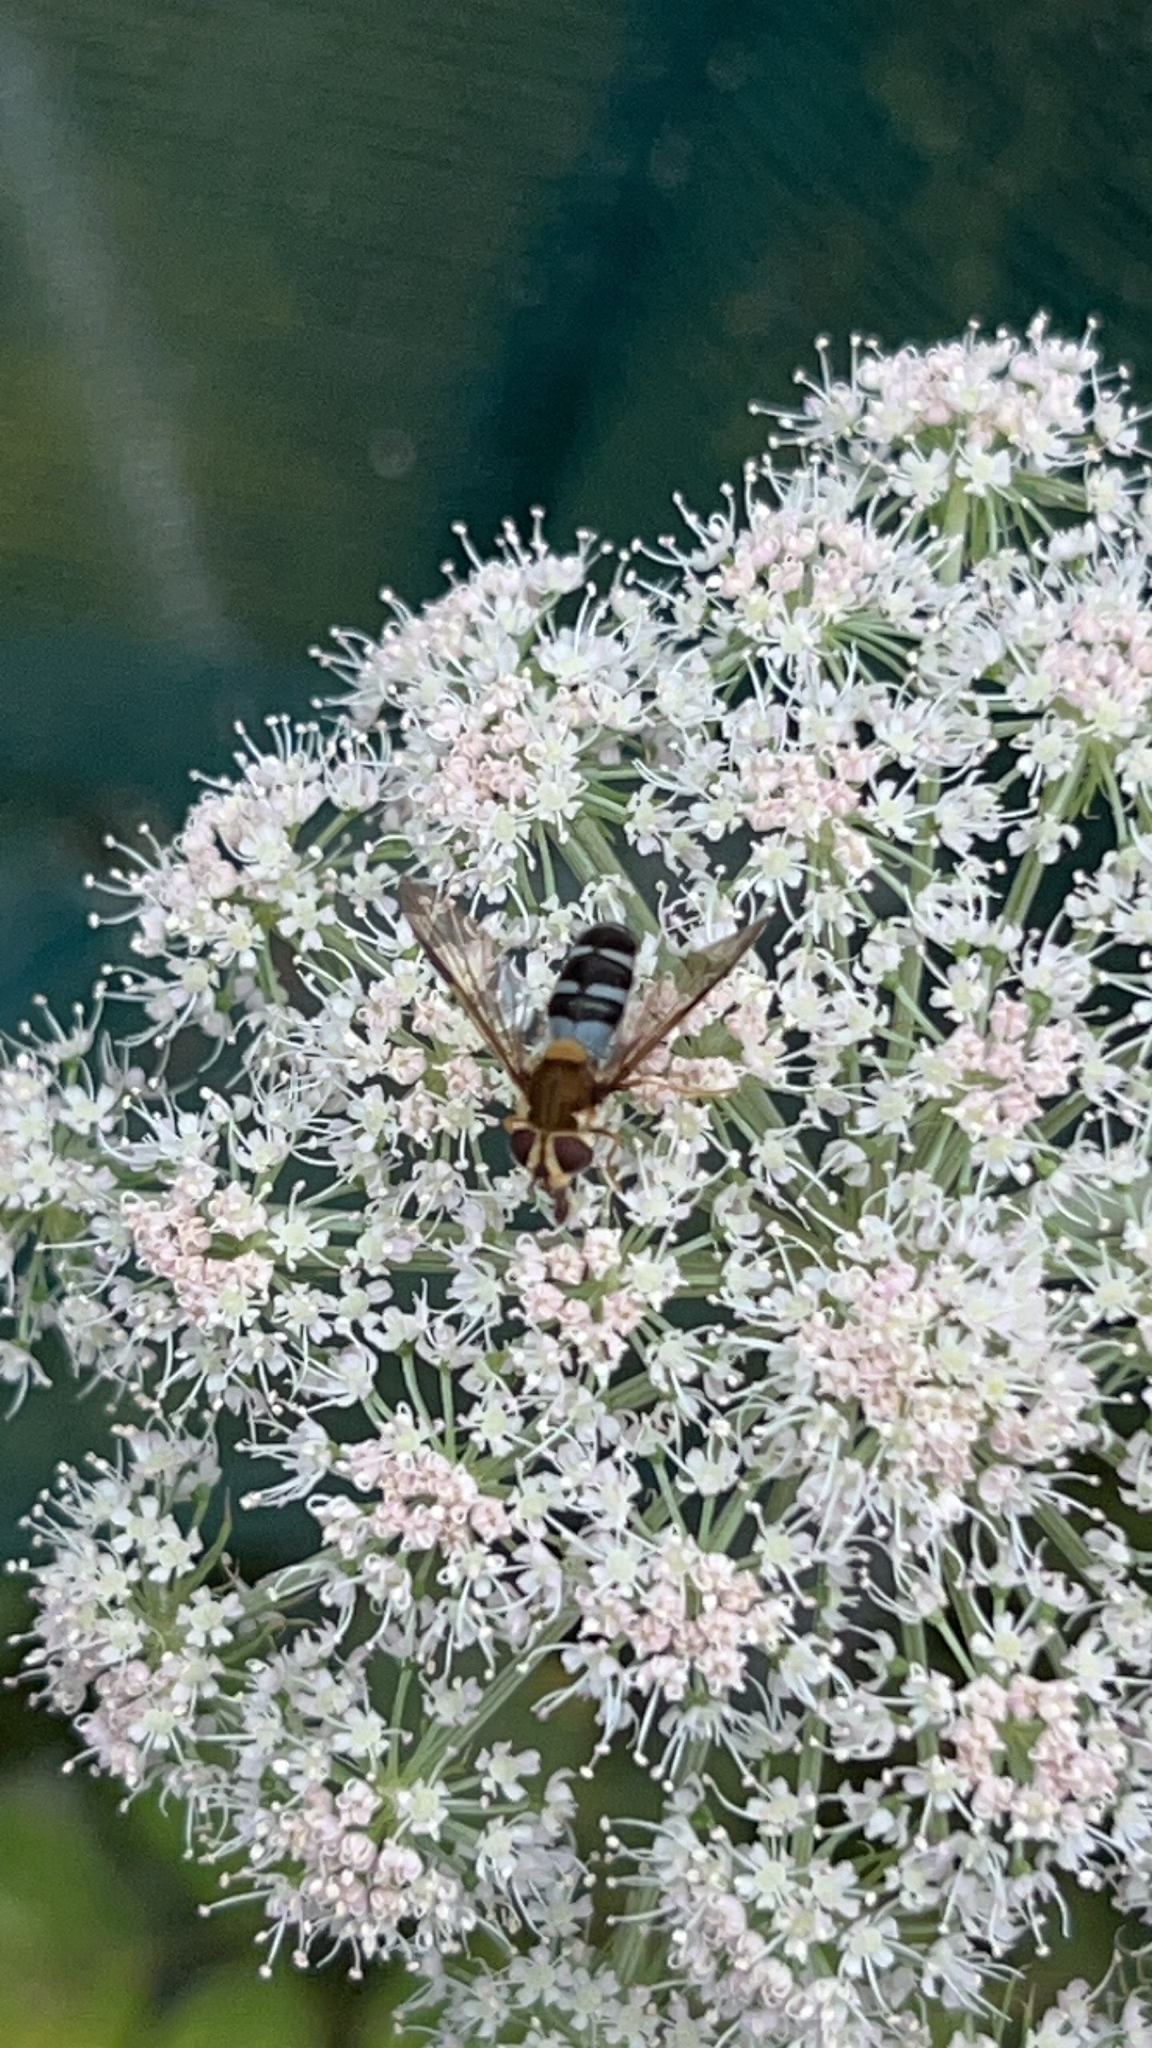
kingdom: Animalia
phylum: Arthropoda
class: Insecta
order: Diptera
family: Syrphidae
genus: Leucozona
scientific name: Leucozona glaucia
